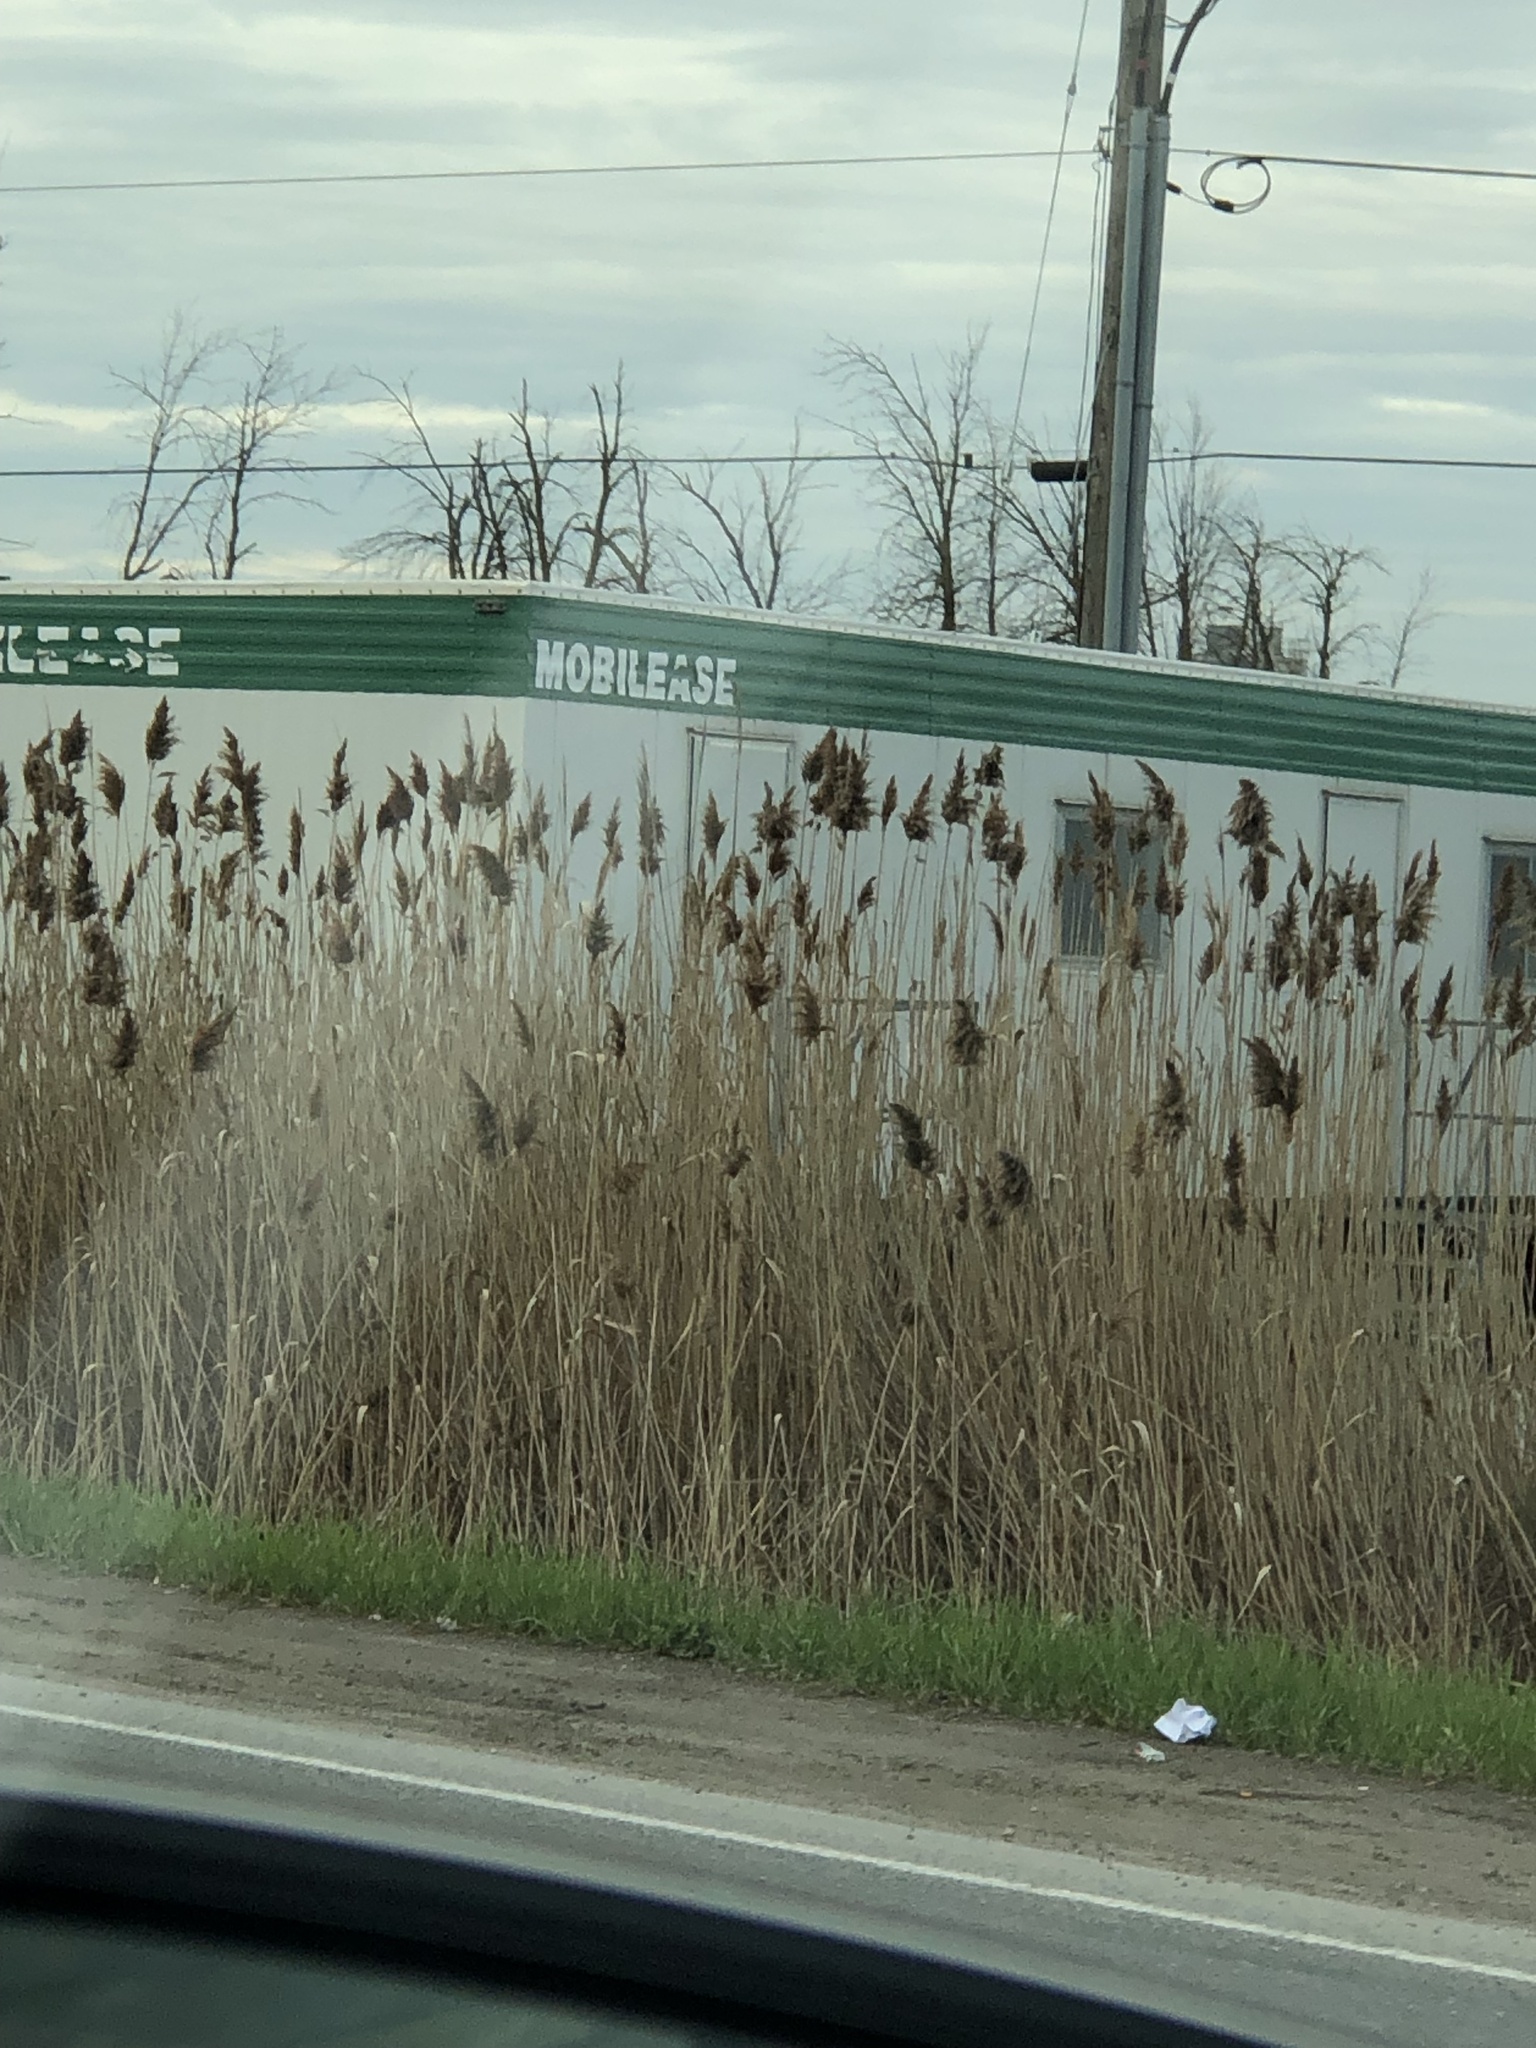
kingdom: Plantae
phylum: Tracheophyta
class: Liliopsida
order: Poales
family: Poaceae
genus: Phragmites
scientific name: Phragmites australis
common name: Common reed
